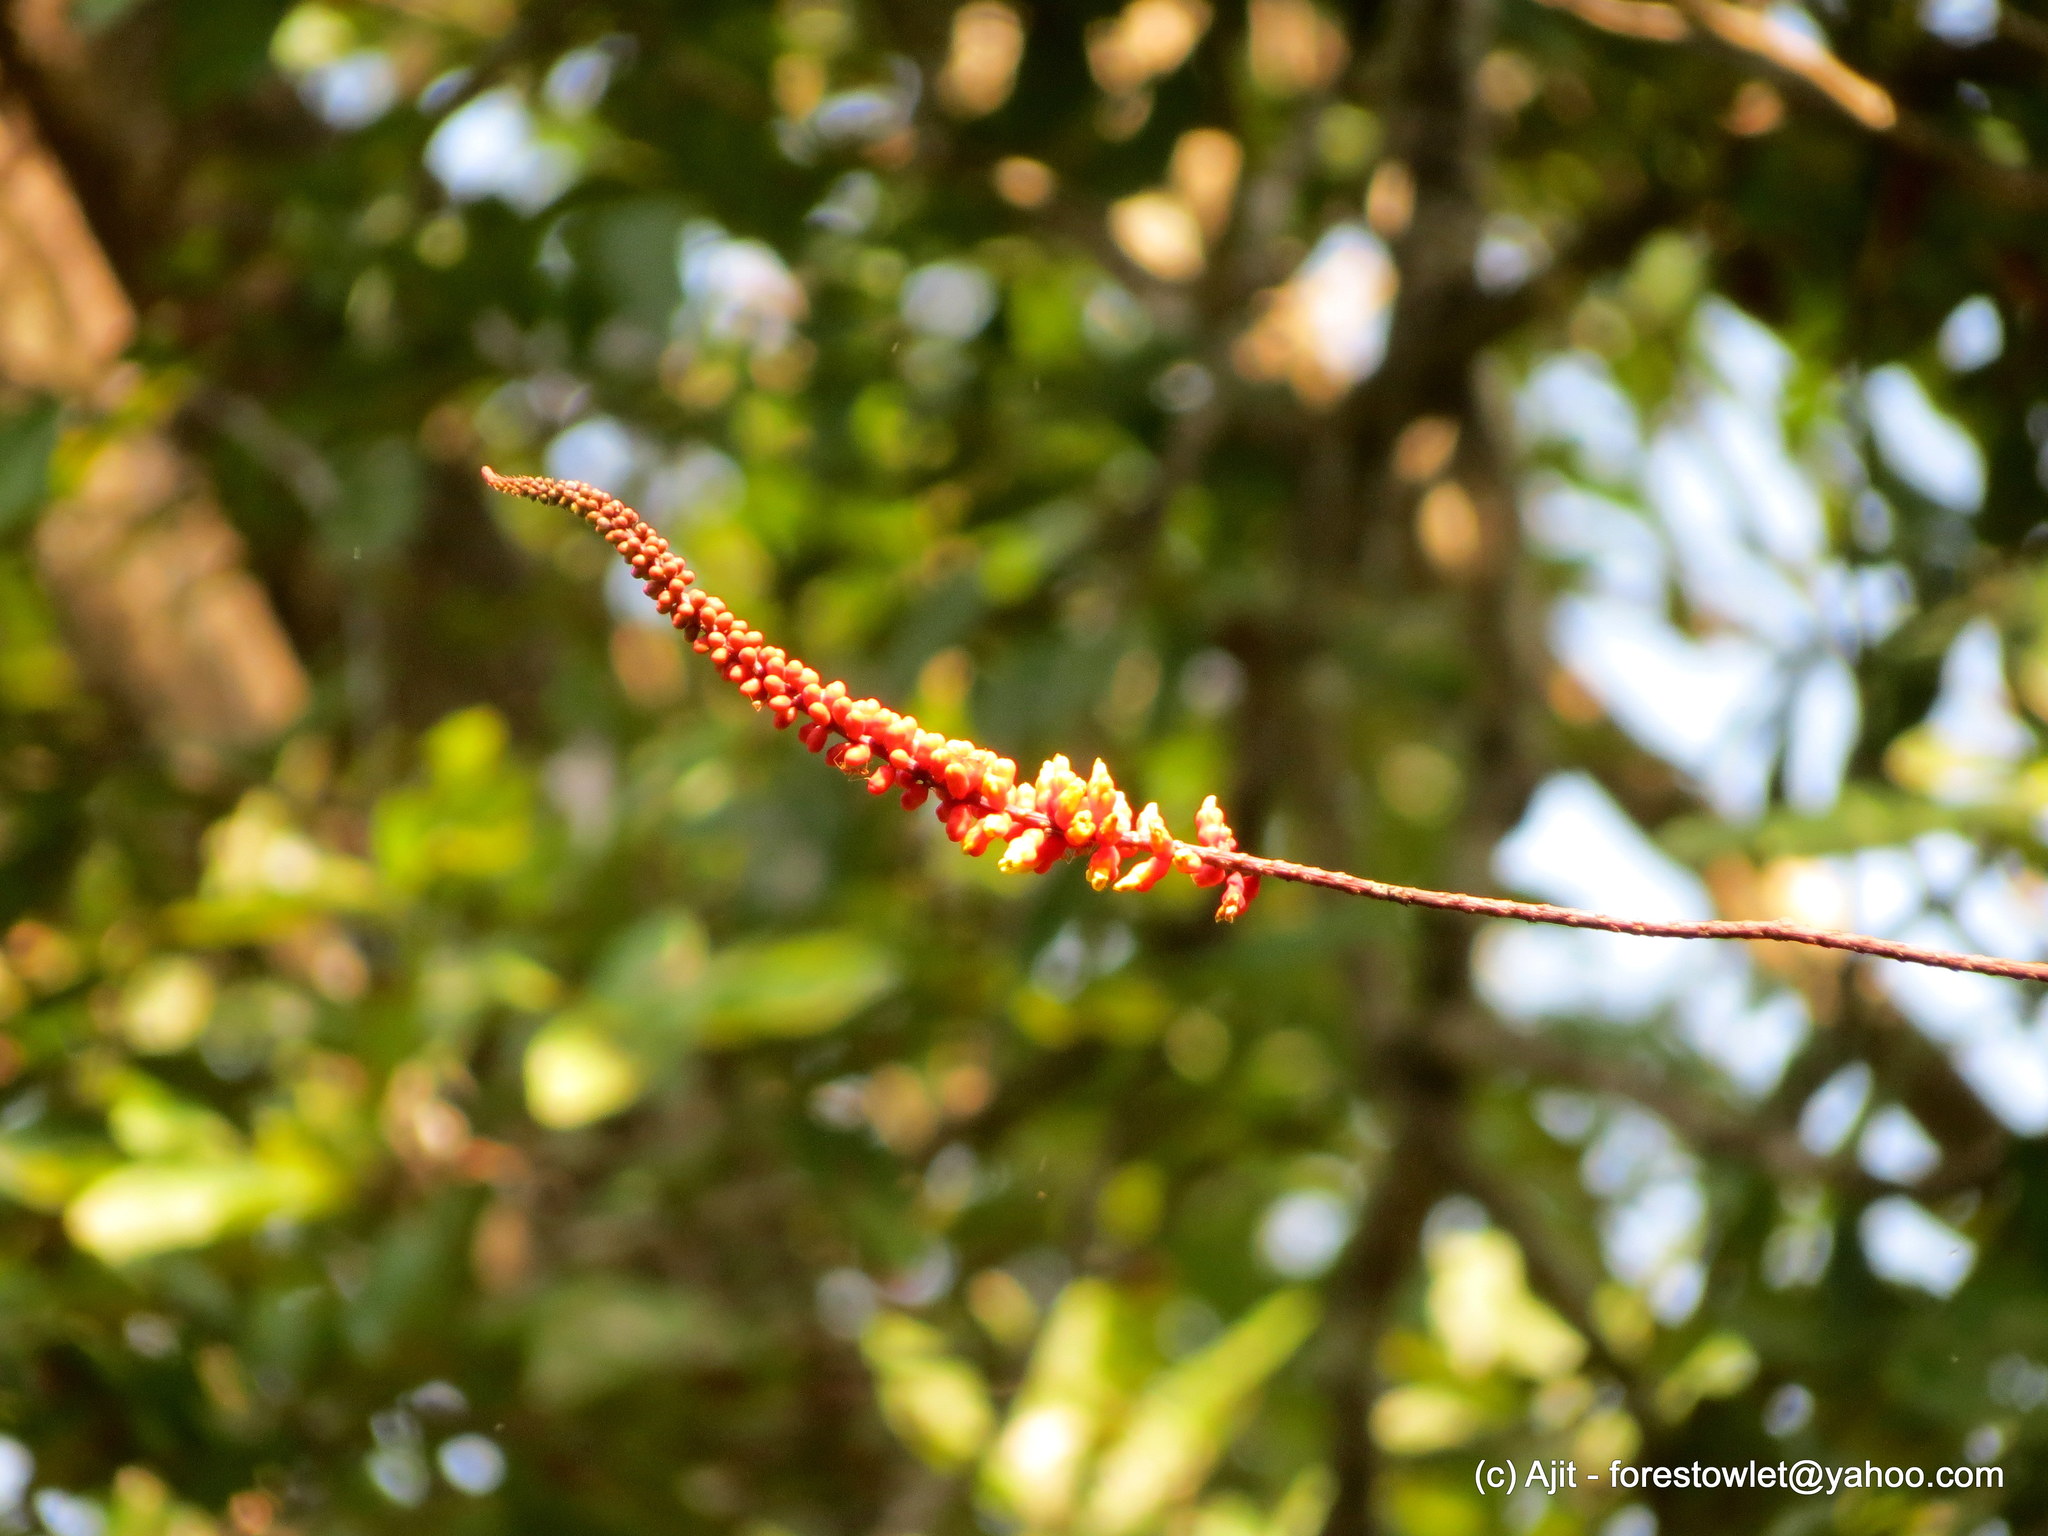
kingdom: Plantae
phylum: Tracheophyta
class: Magnoliopsida
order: Fabales
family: Fabaceae
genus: Moullava
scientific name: Moullava spicata
